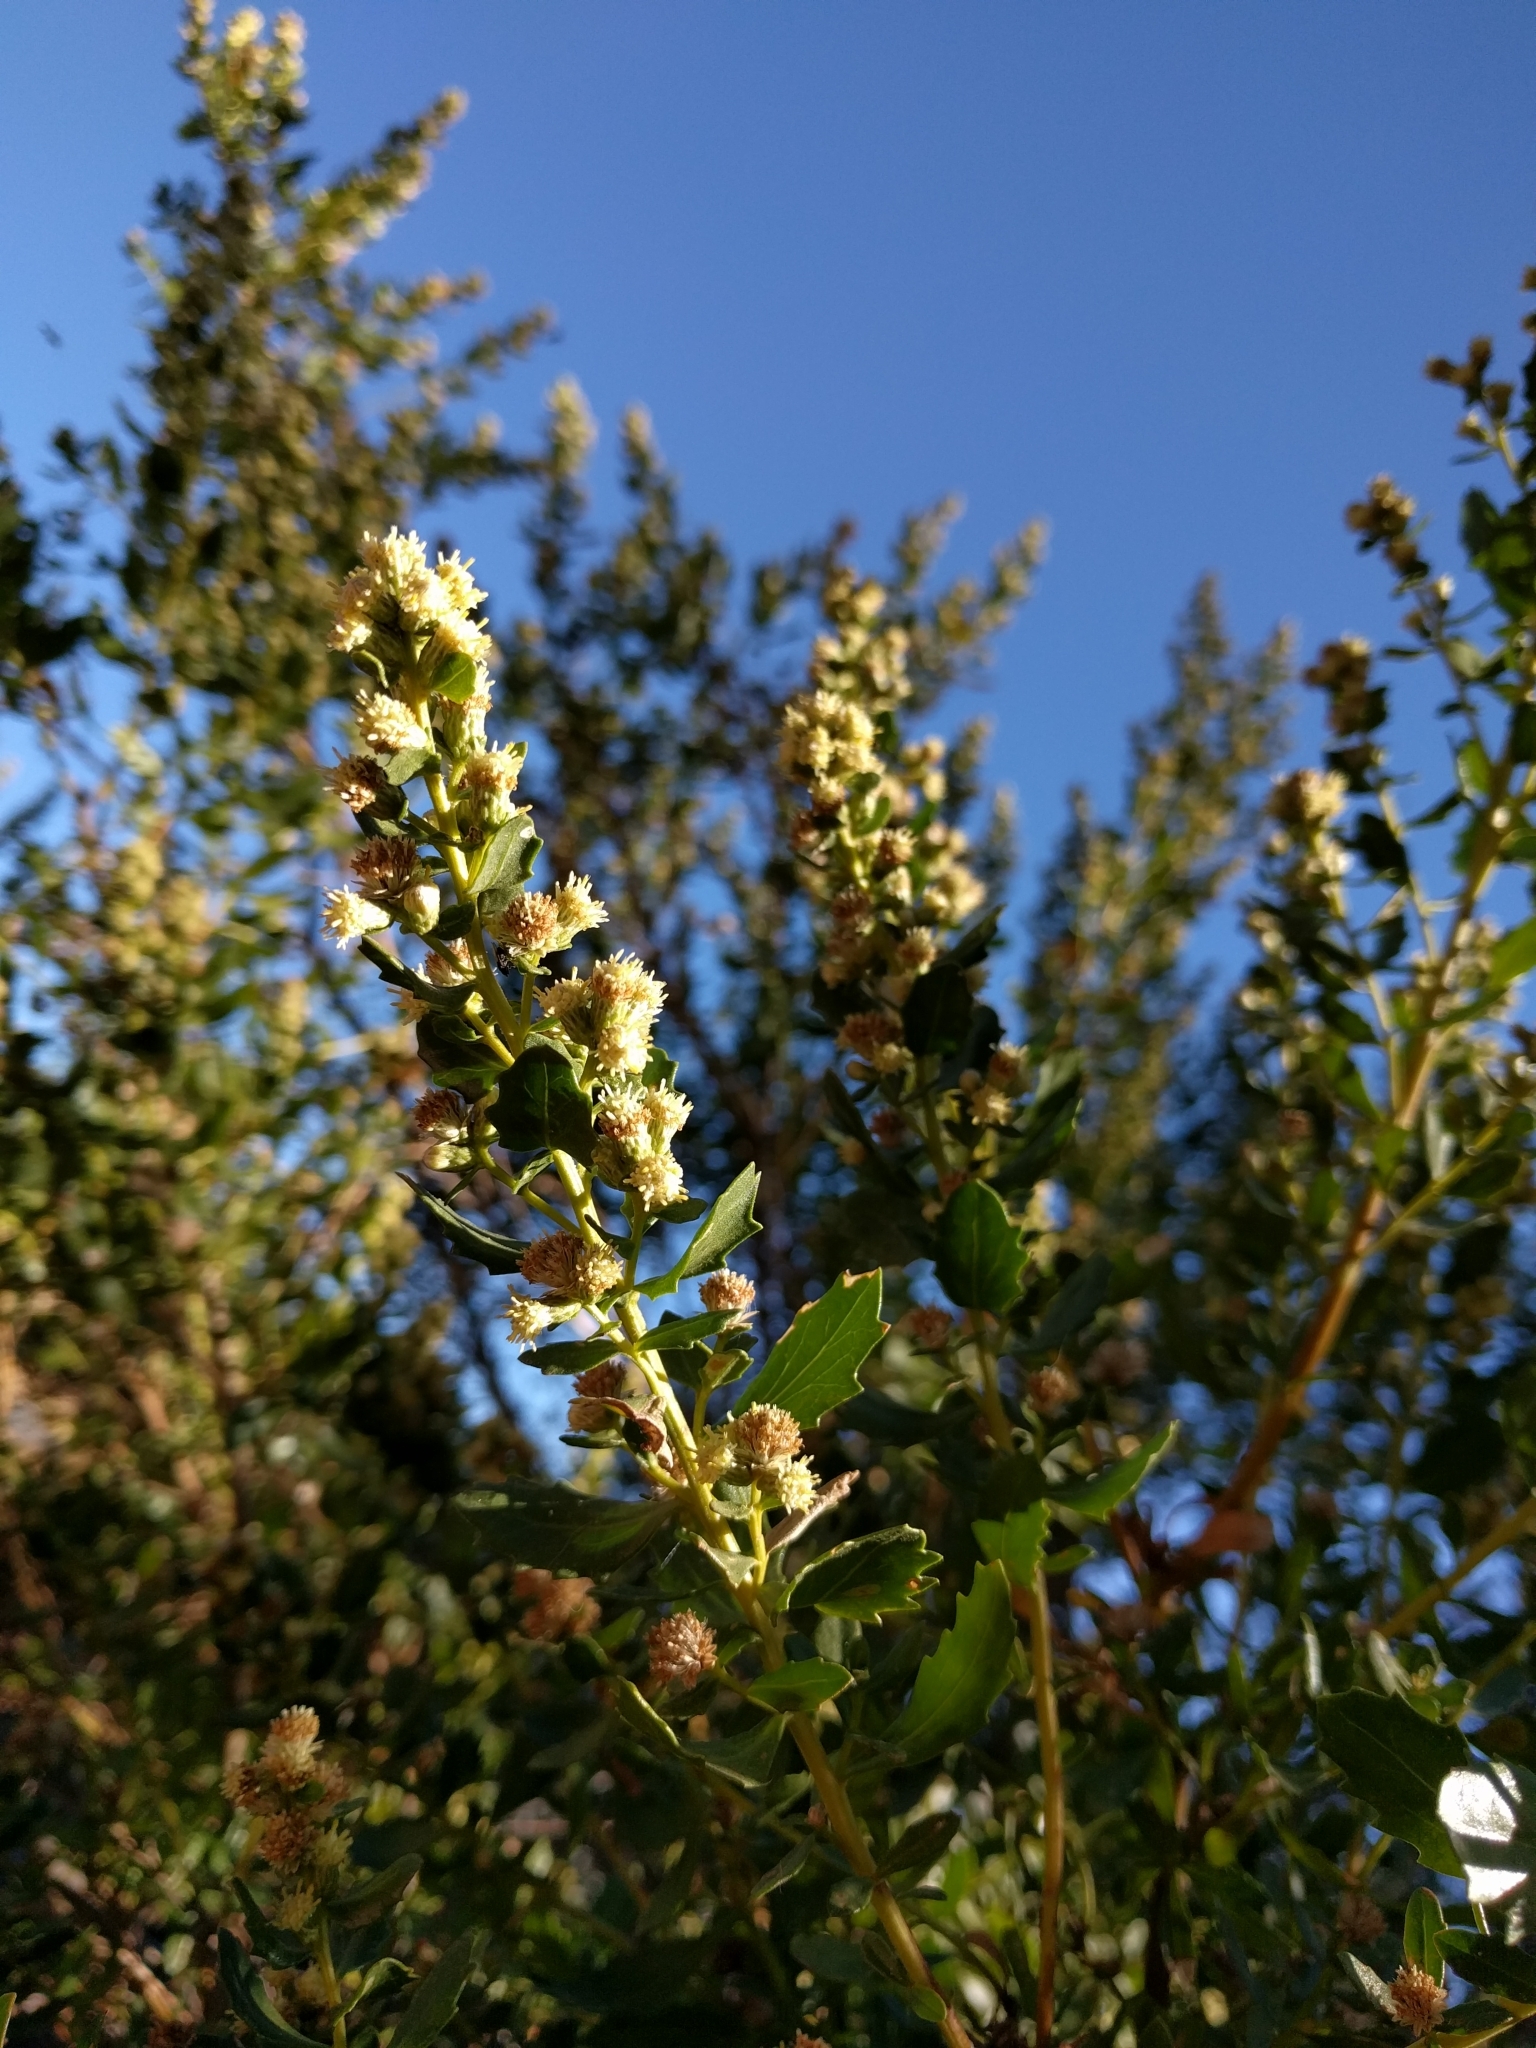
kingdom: Plantae
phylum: Tracheophyta
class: Magnoliopsida
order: Asterales
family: Asteraceae
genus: Baccharis
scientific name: Baccharis pilularis
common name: Coyotebrush
